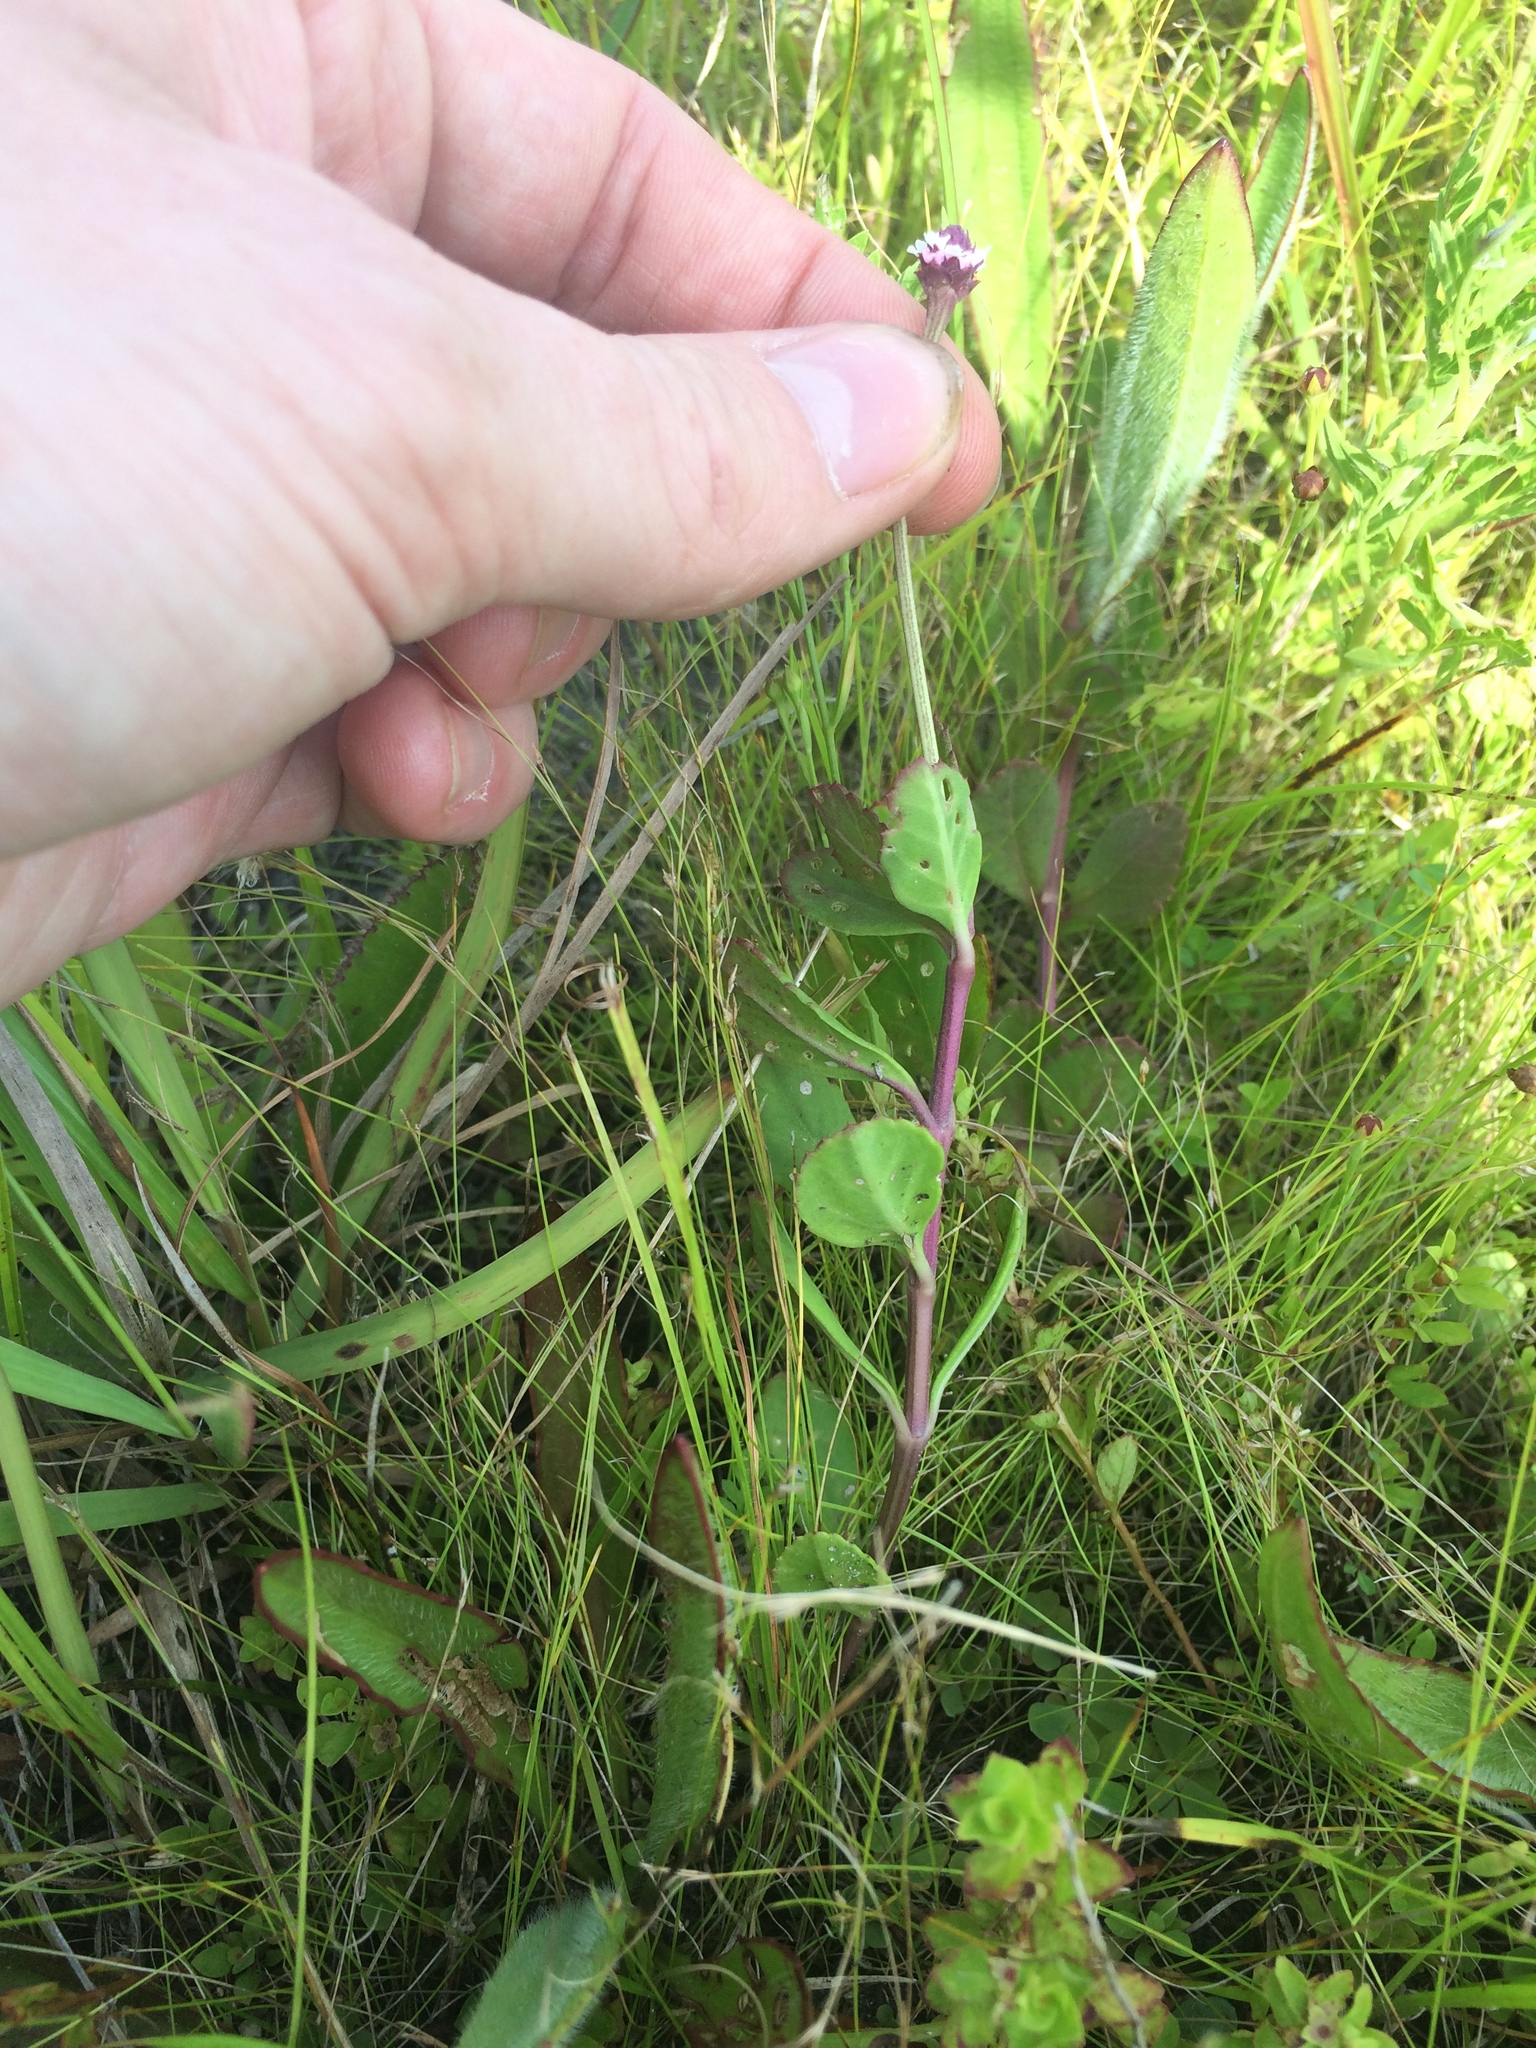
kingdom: Plantae
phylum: Tracheophyta
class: Magnoliopsida
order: Lamiales
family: Verbenaceae
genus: Phyla
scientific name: Phyla nodiflora
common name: Frogfruit
